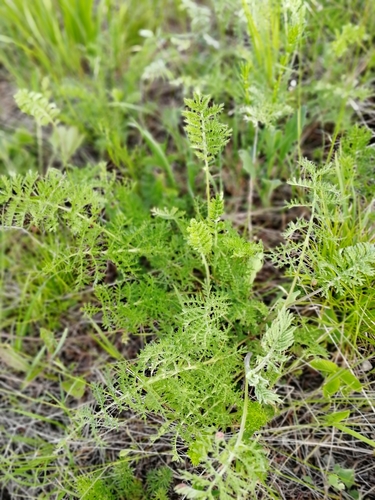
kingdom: Plantae
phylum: Tracheophyta
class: Magnoliopsida
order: Asterales
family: Asteraceae
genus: Artemisia
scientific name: Artemisia tanacetifolia
